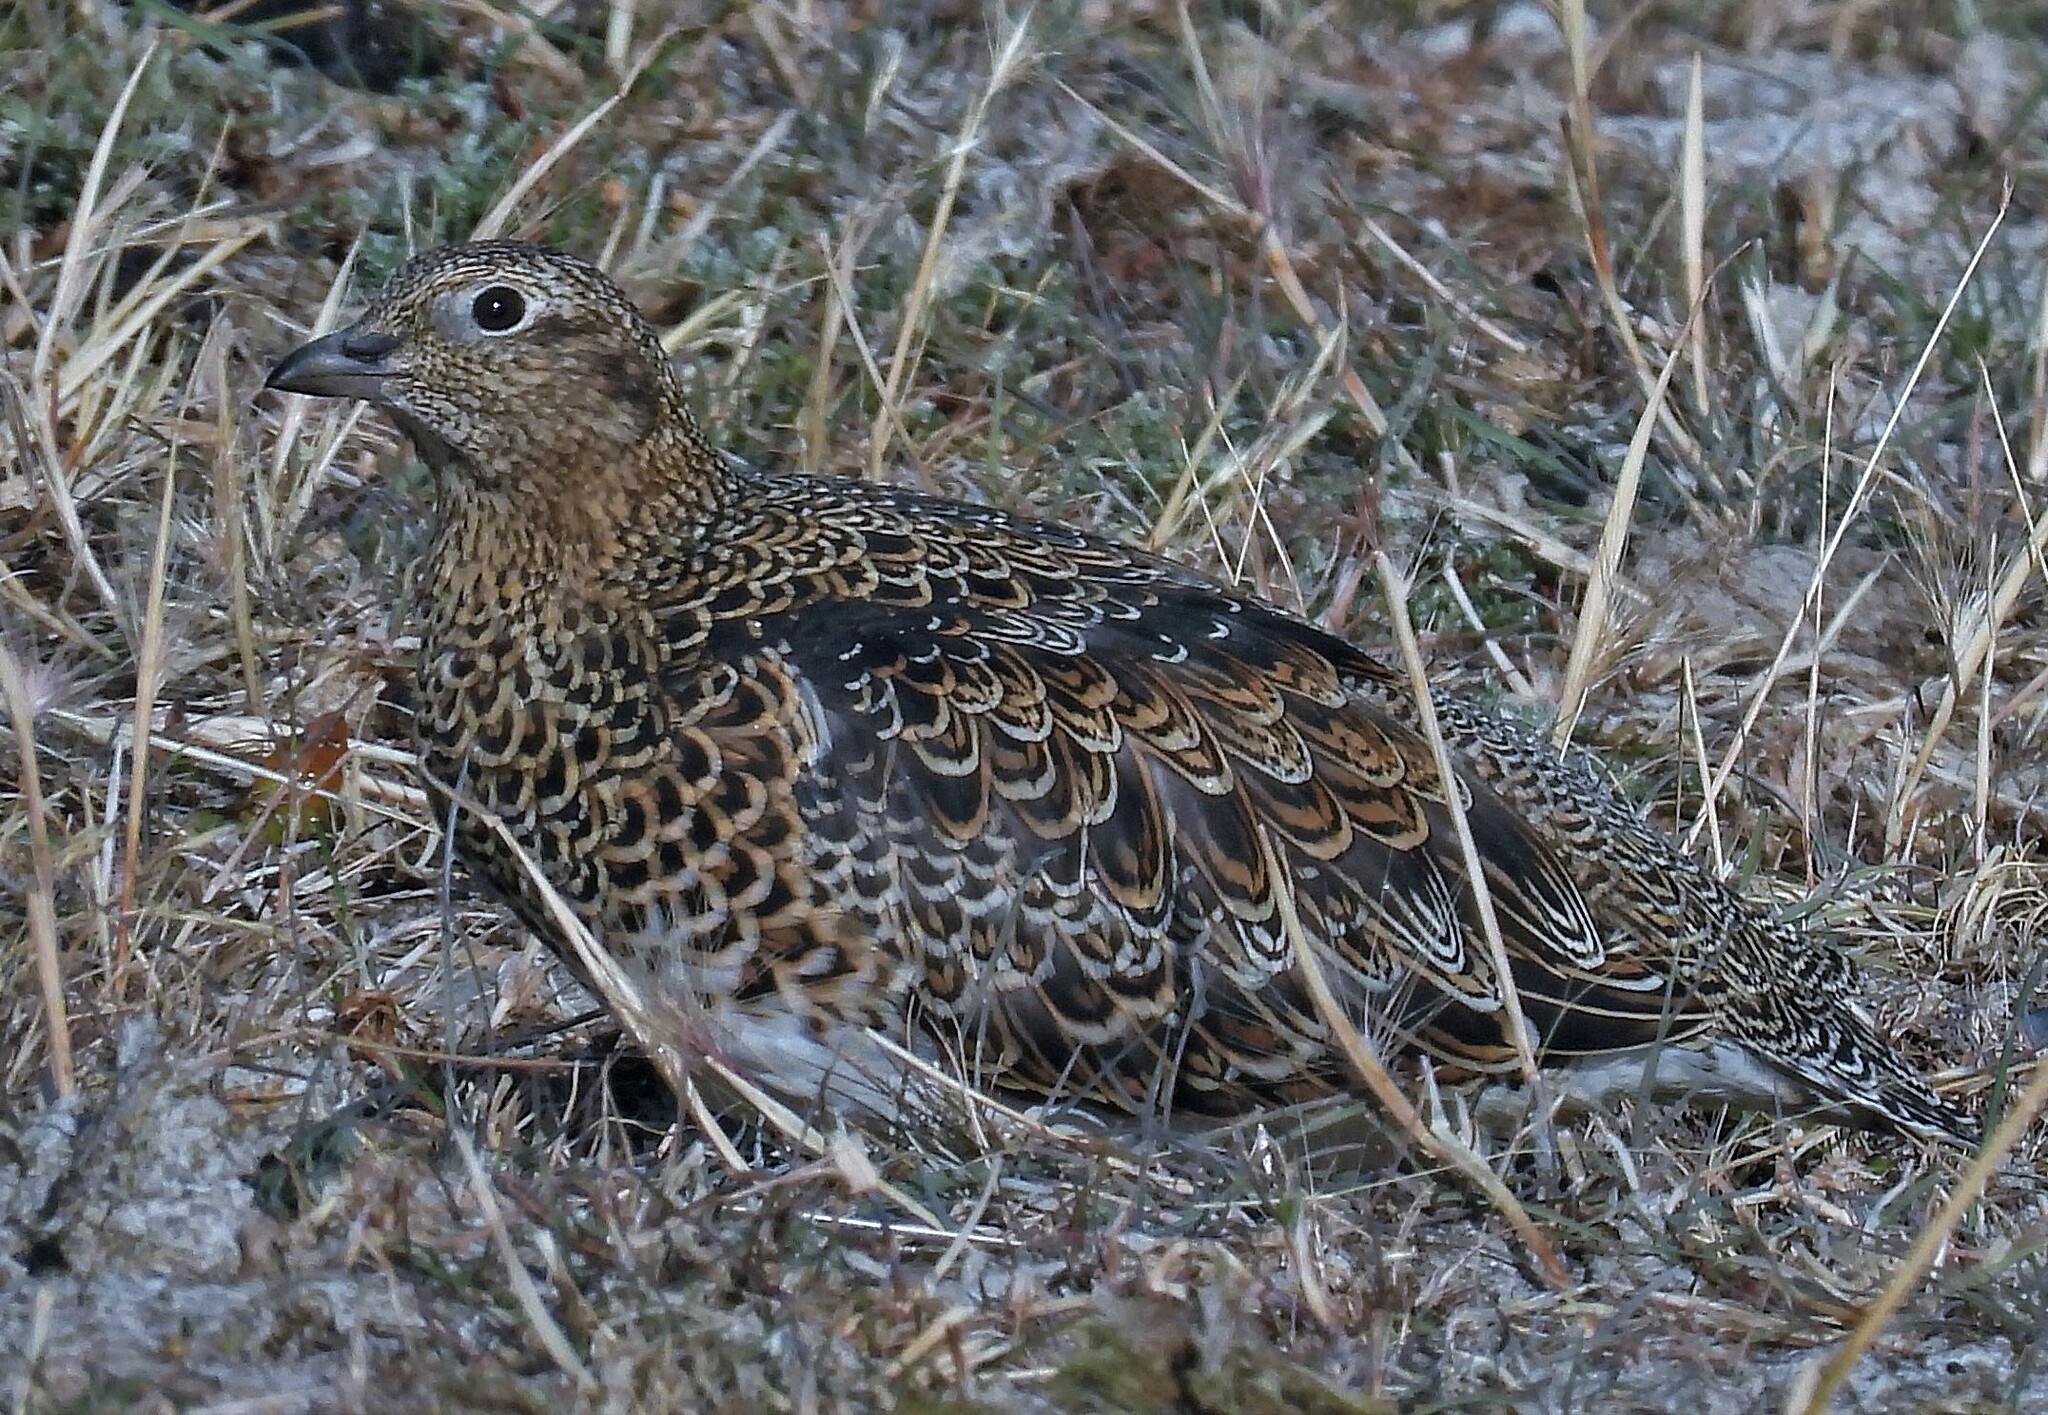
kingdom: Animalia
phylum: Chordata
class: Aves
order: Charadriiformes
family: Thinocoridae
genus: Attagis
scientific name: Attagis malouinus
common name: White-bellied seedsnipe
